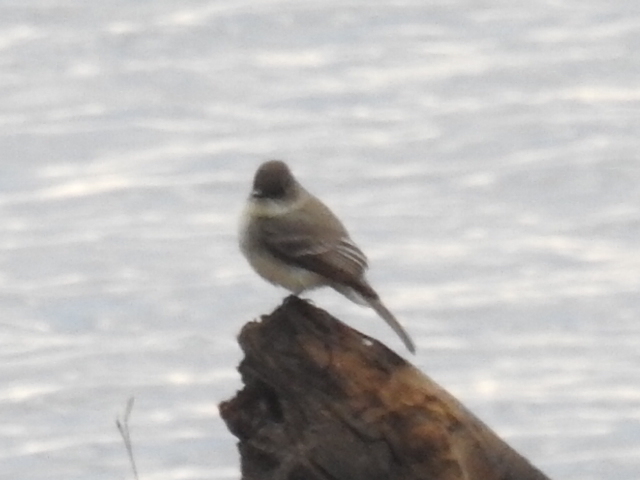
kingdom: Animalia
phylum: Chordata
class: Aves
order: Passeriformes
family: Tyrannidae
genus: Sayornis
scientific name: Sayornis phoebe
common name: Eastern phoebe
